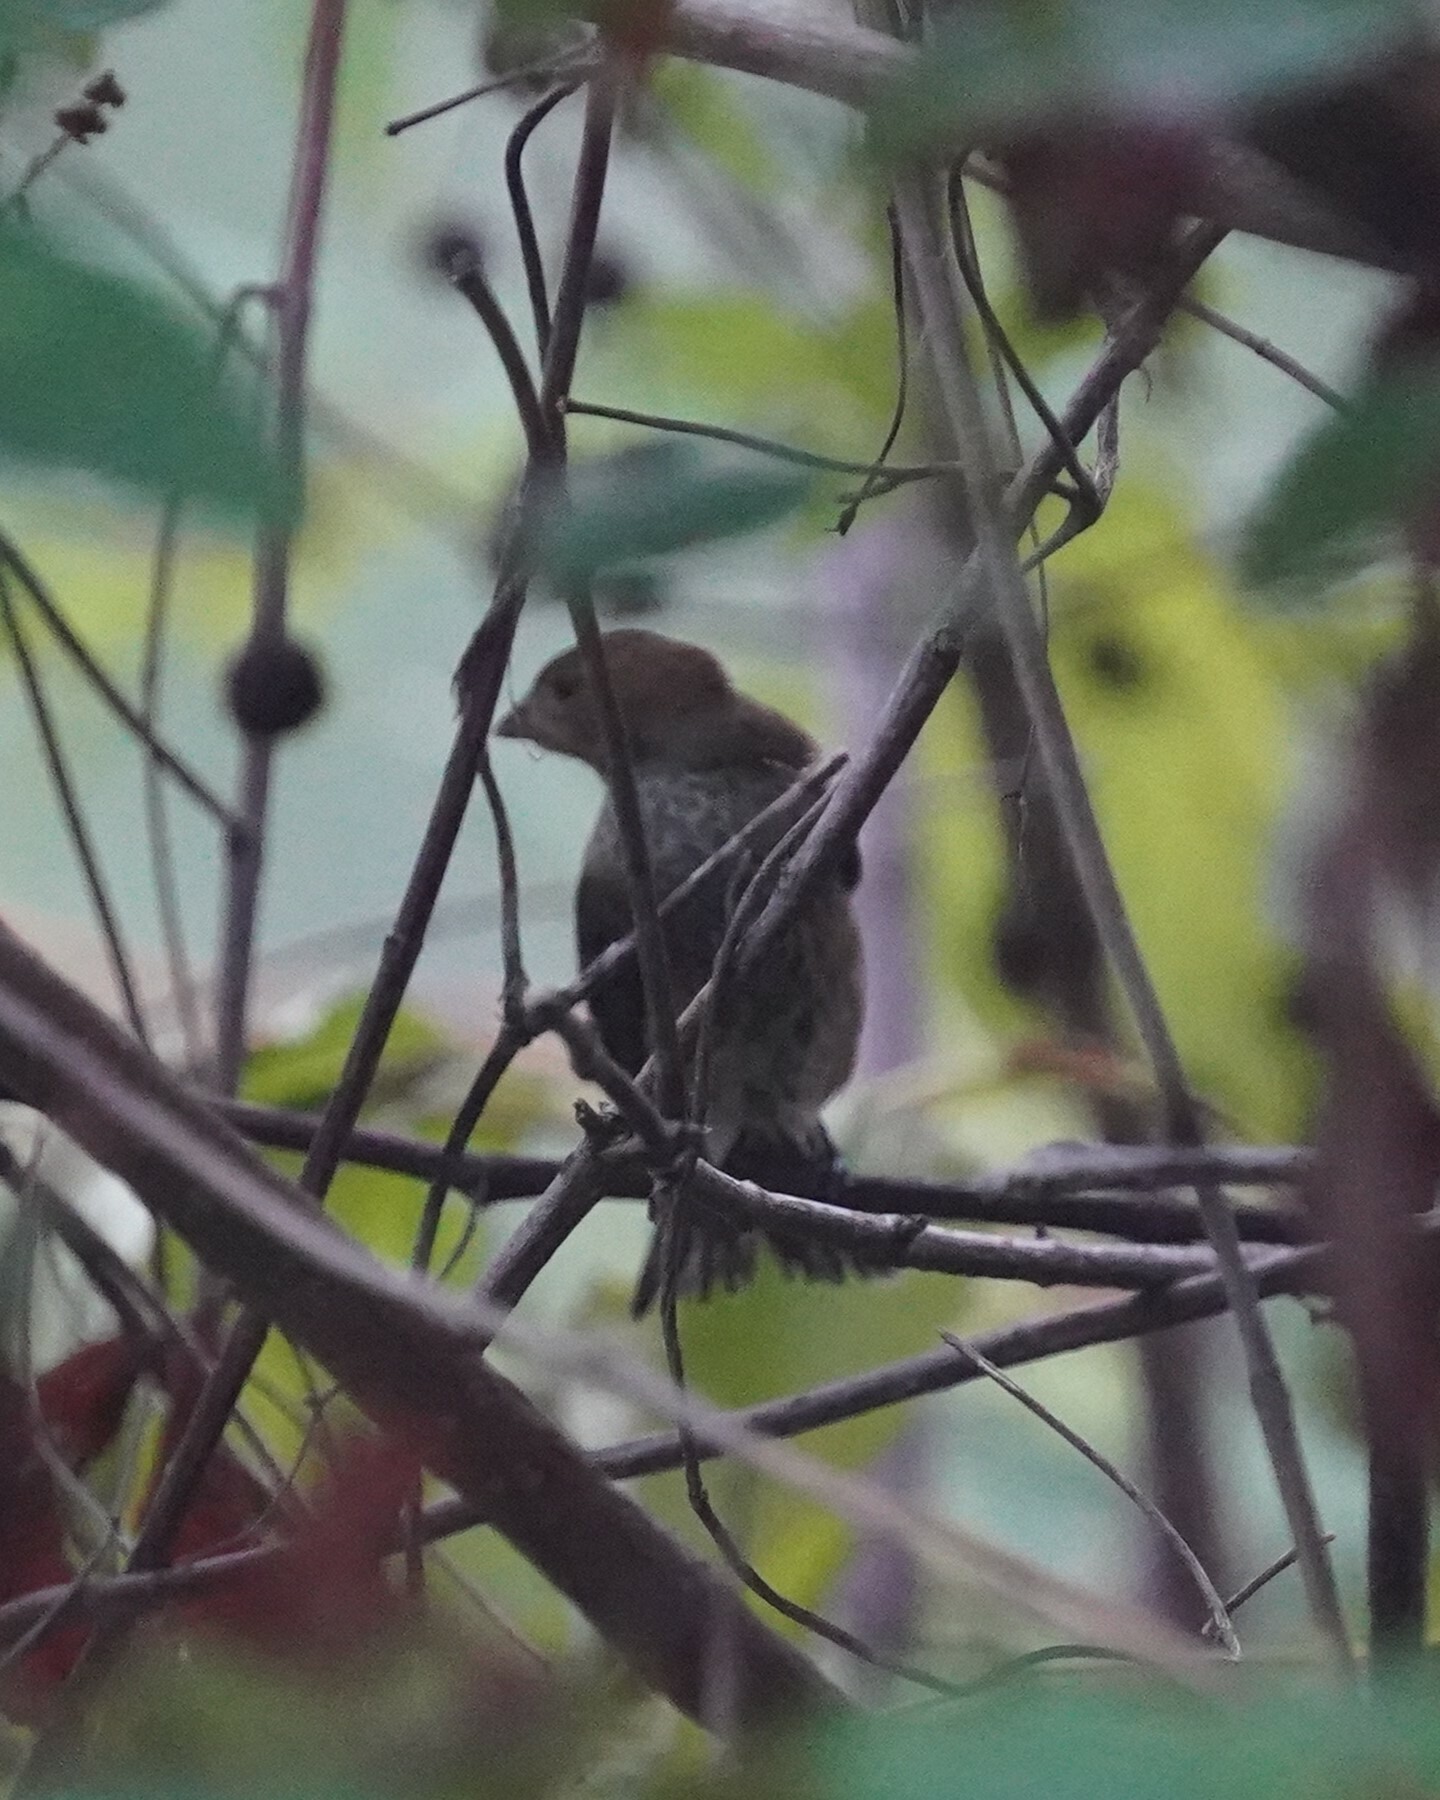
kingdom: Animalia
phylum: Chordata
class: Aves
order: Passeriformes
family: Cardinalidae
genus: Passerina
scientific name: Passerina cyanea
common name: Indigo bunting
